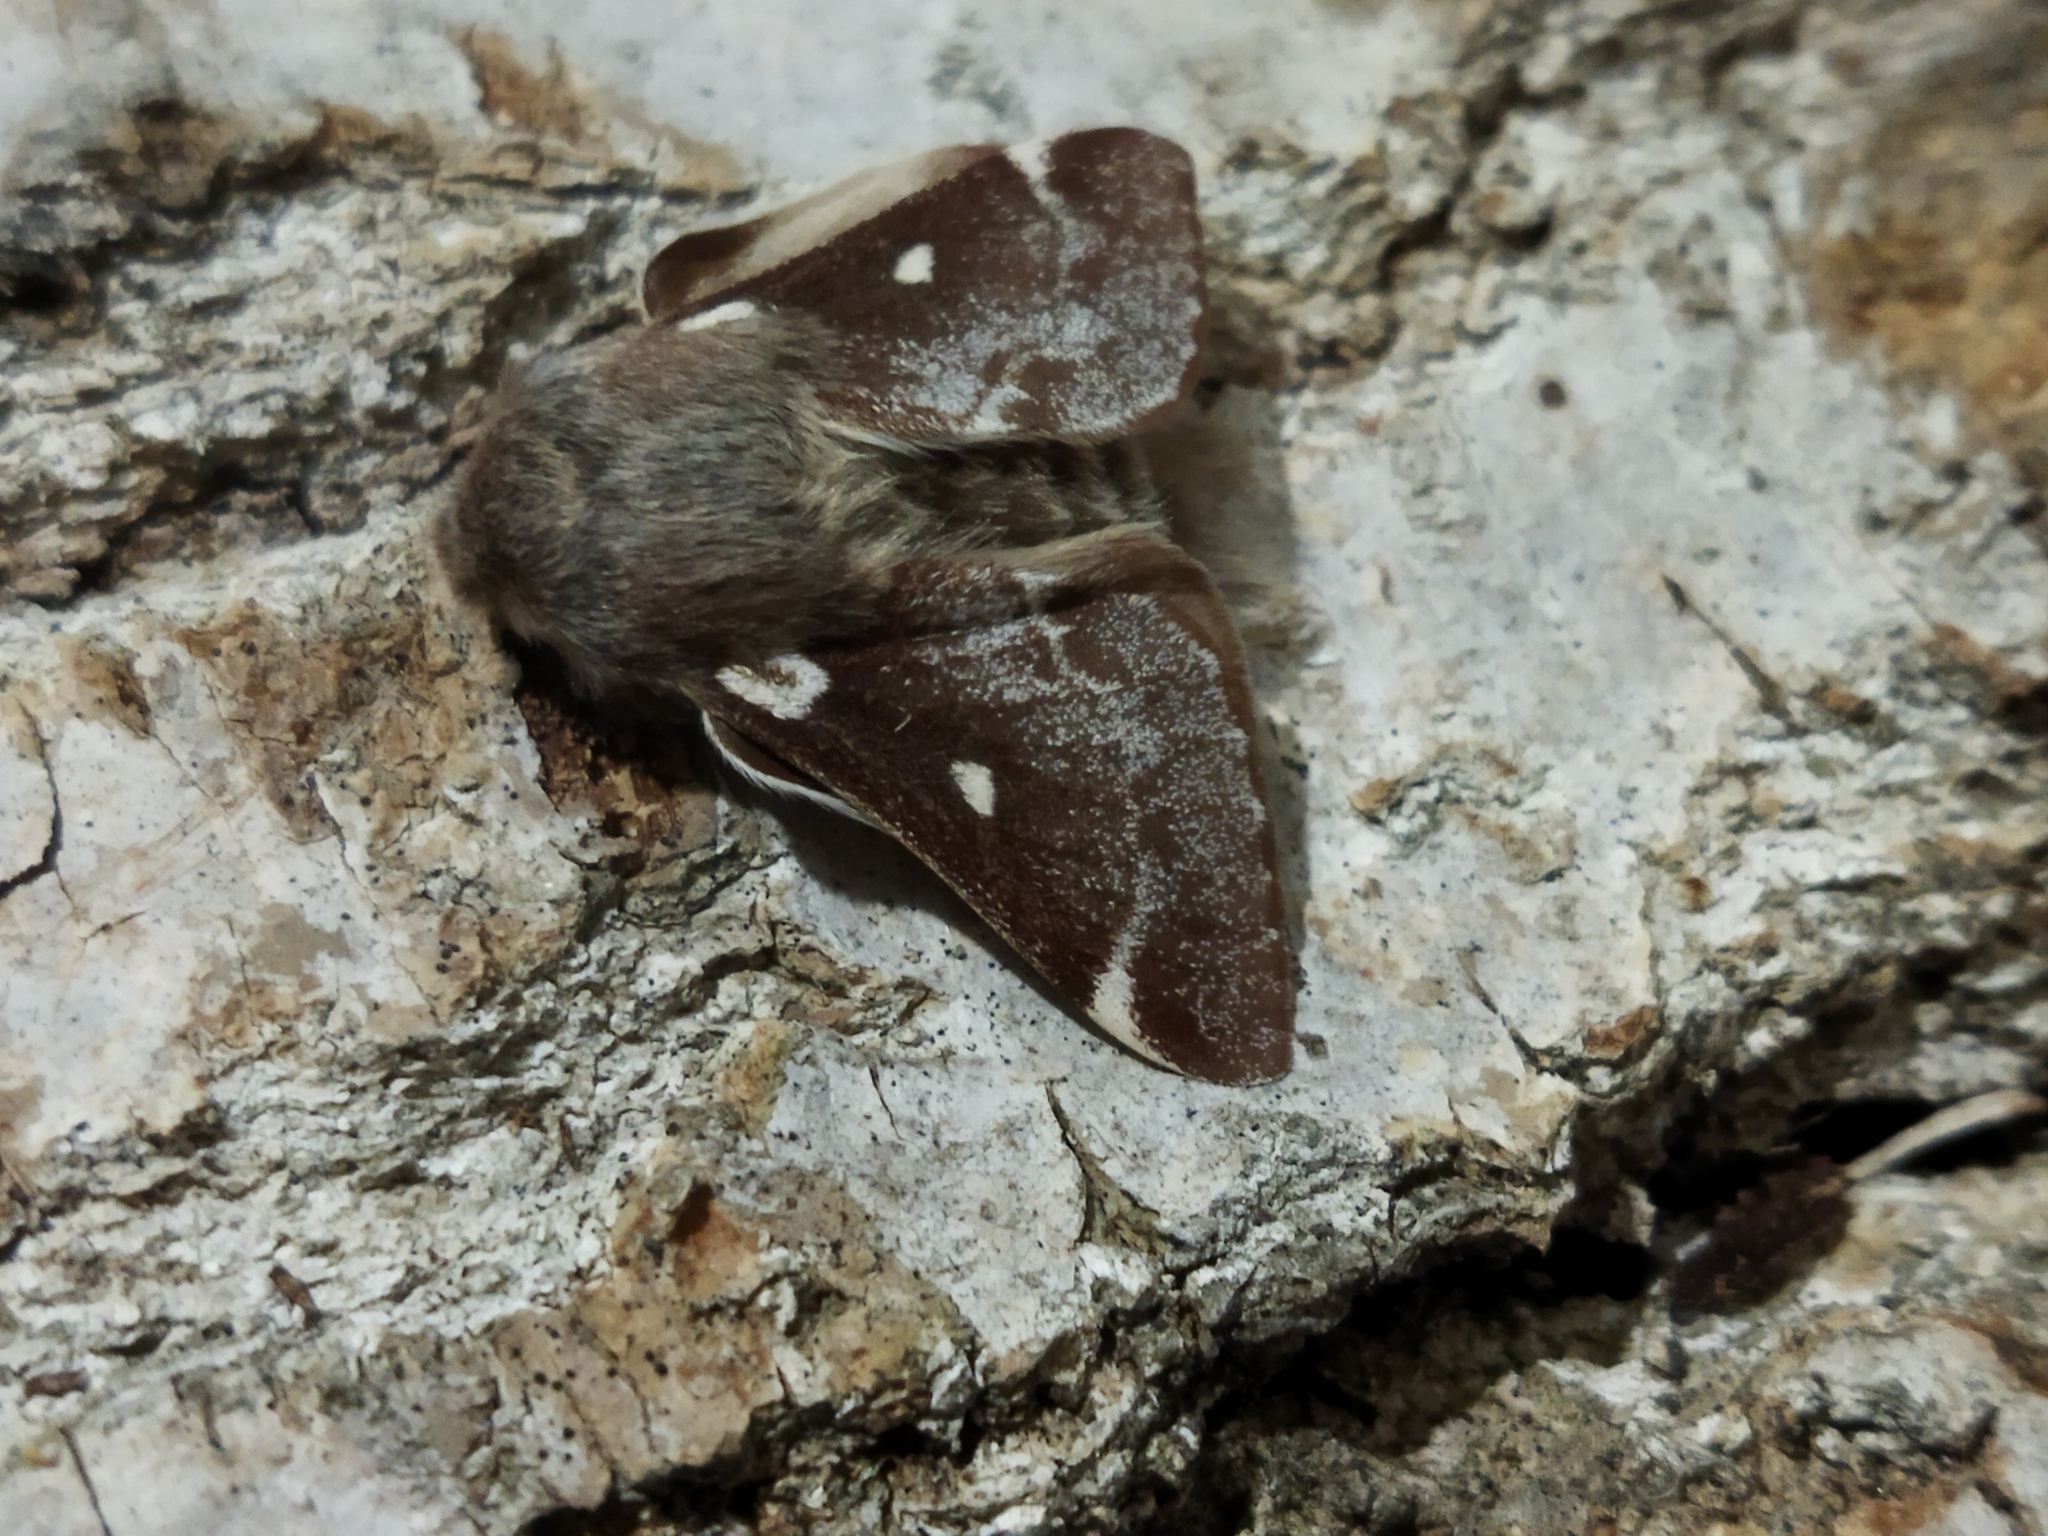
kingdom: Animalia
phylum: Arthropoda
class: Insecta
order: Lepidoptera
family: Lasiocampidae
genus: Eriogaster
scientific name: Eriogaster lanestris
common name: Small eggar
